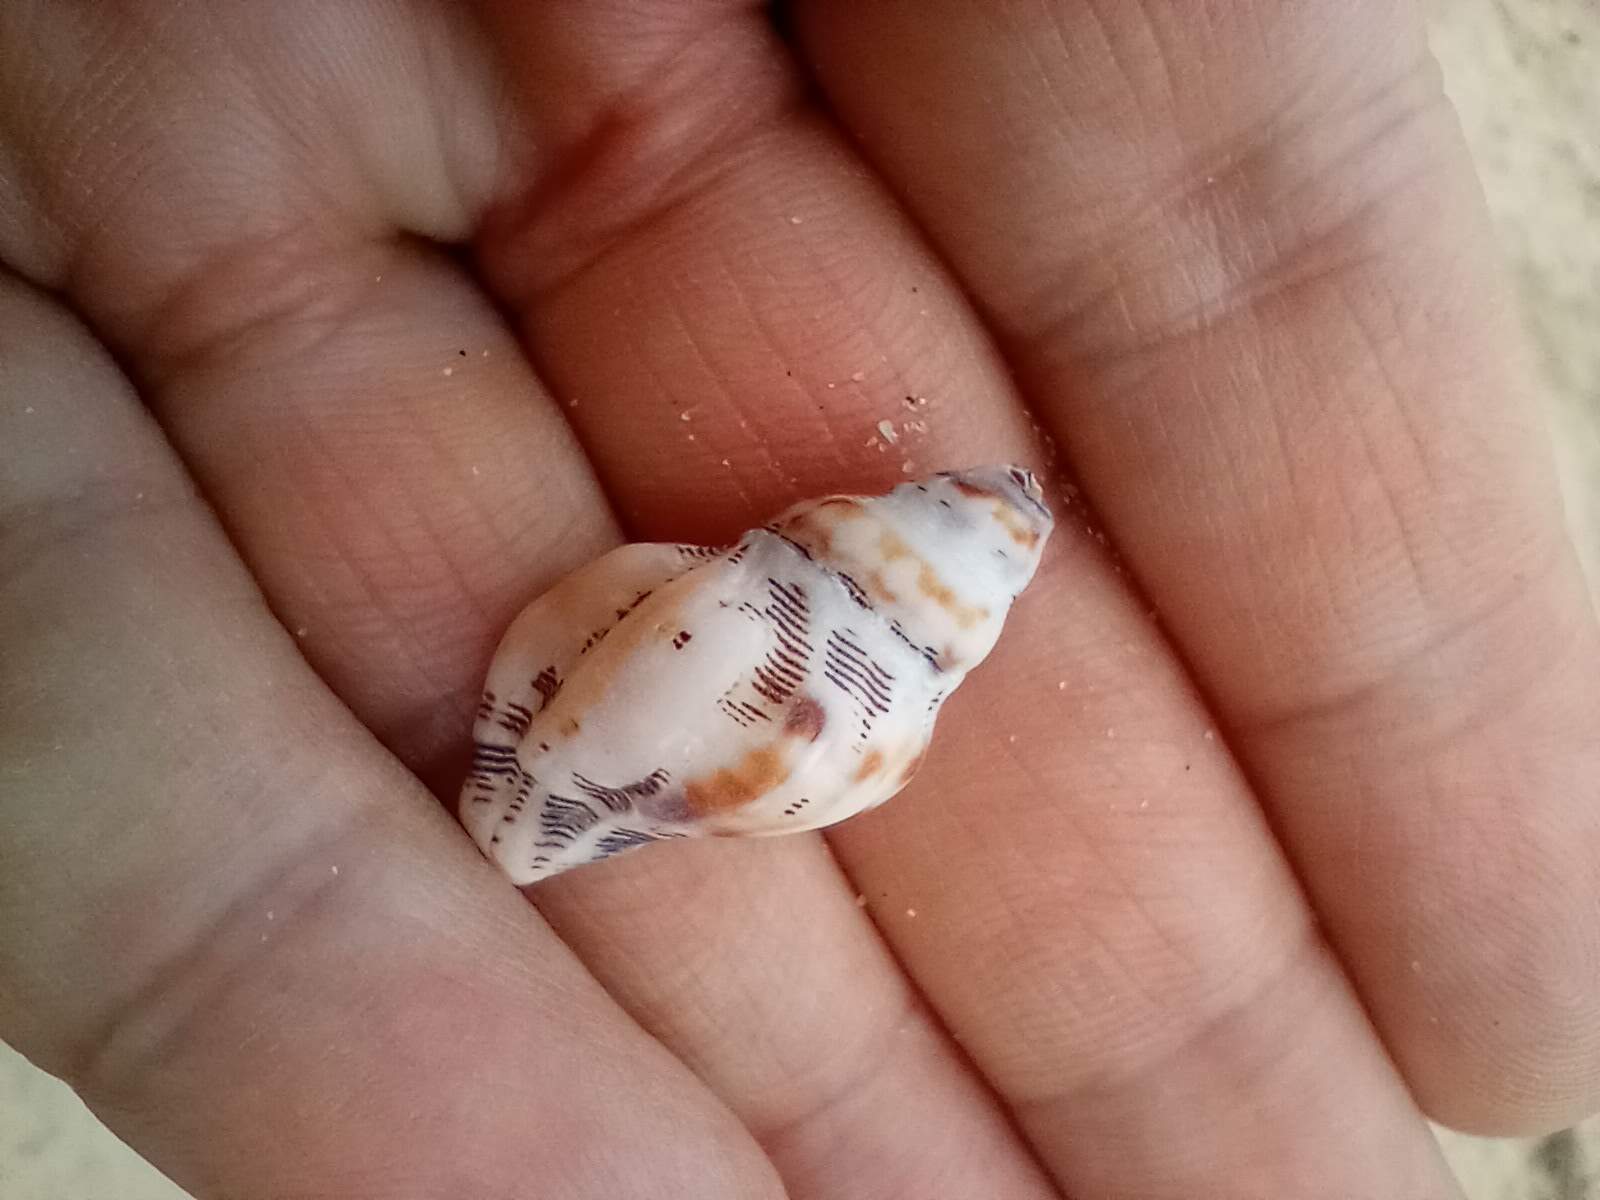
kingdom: Animalia
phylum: Mollusca
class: Gastropoda
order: Neogastropoda
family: Muricidae
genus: Roperia
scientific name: Roperia poulsoni
